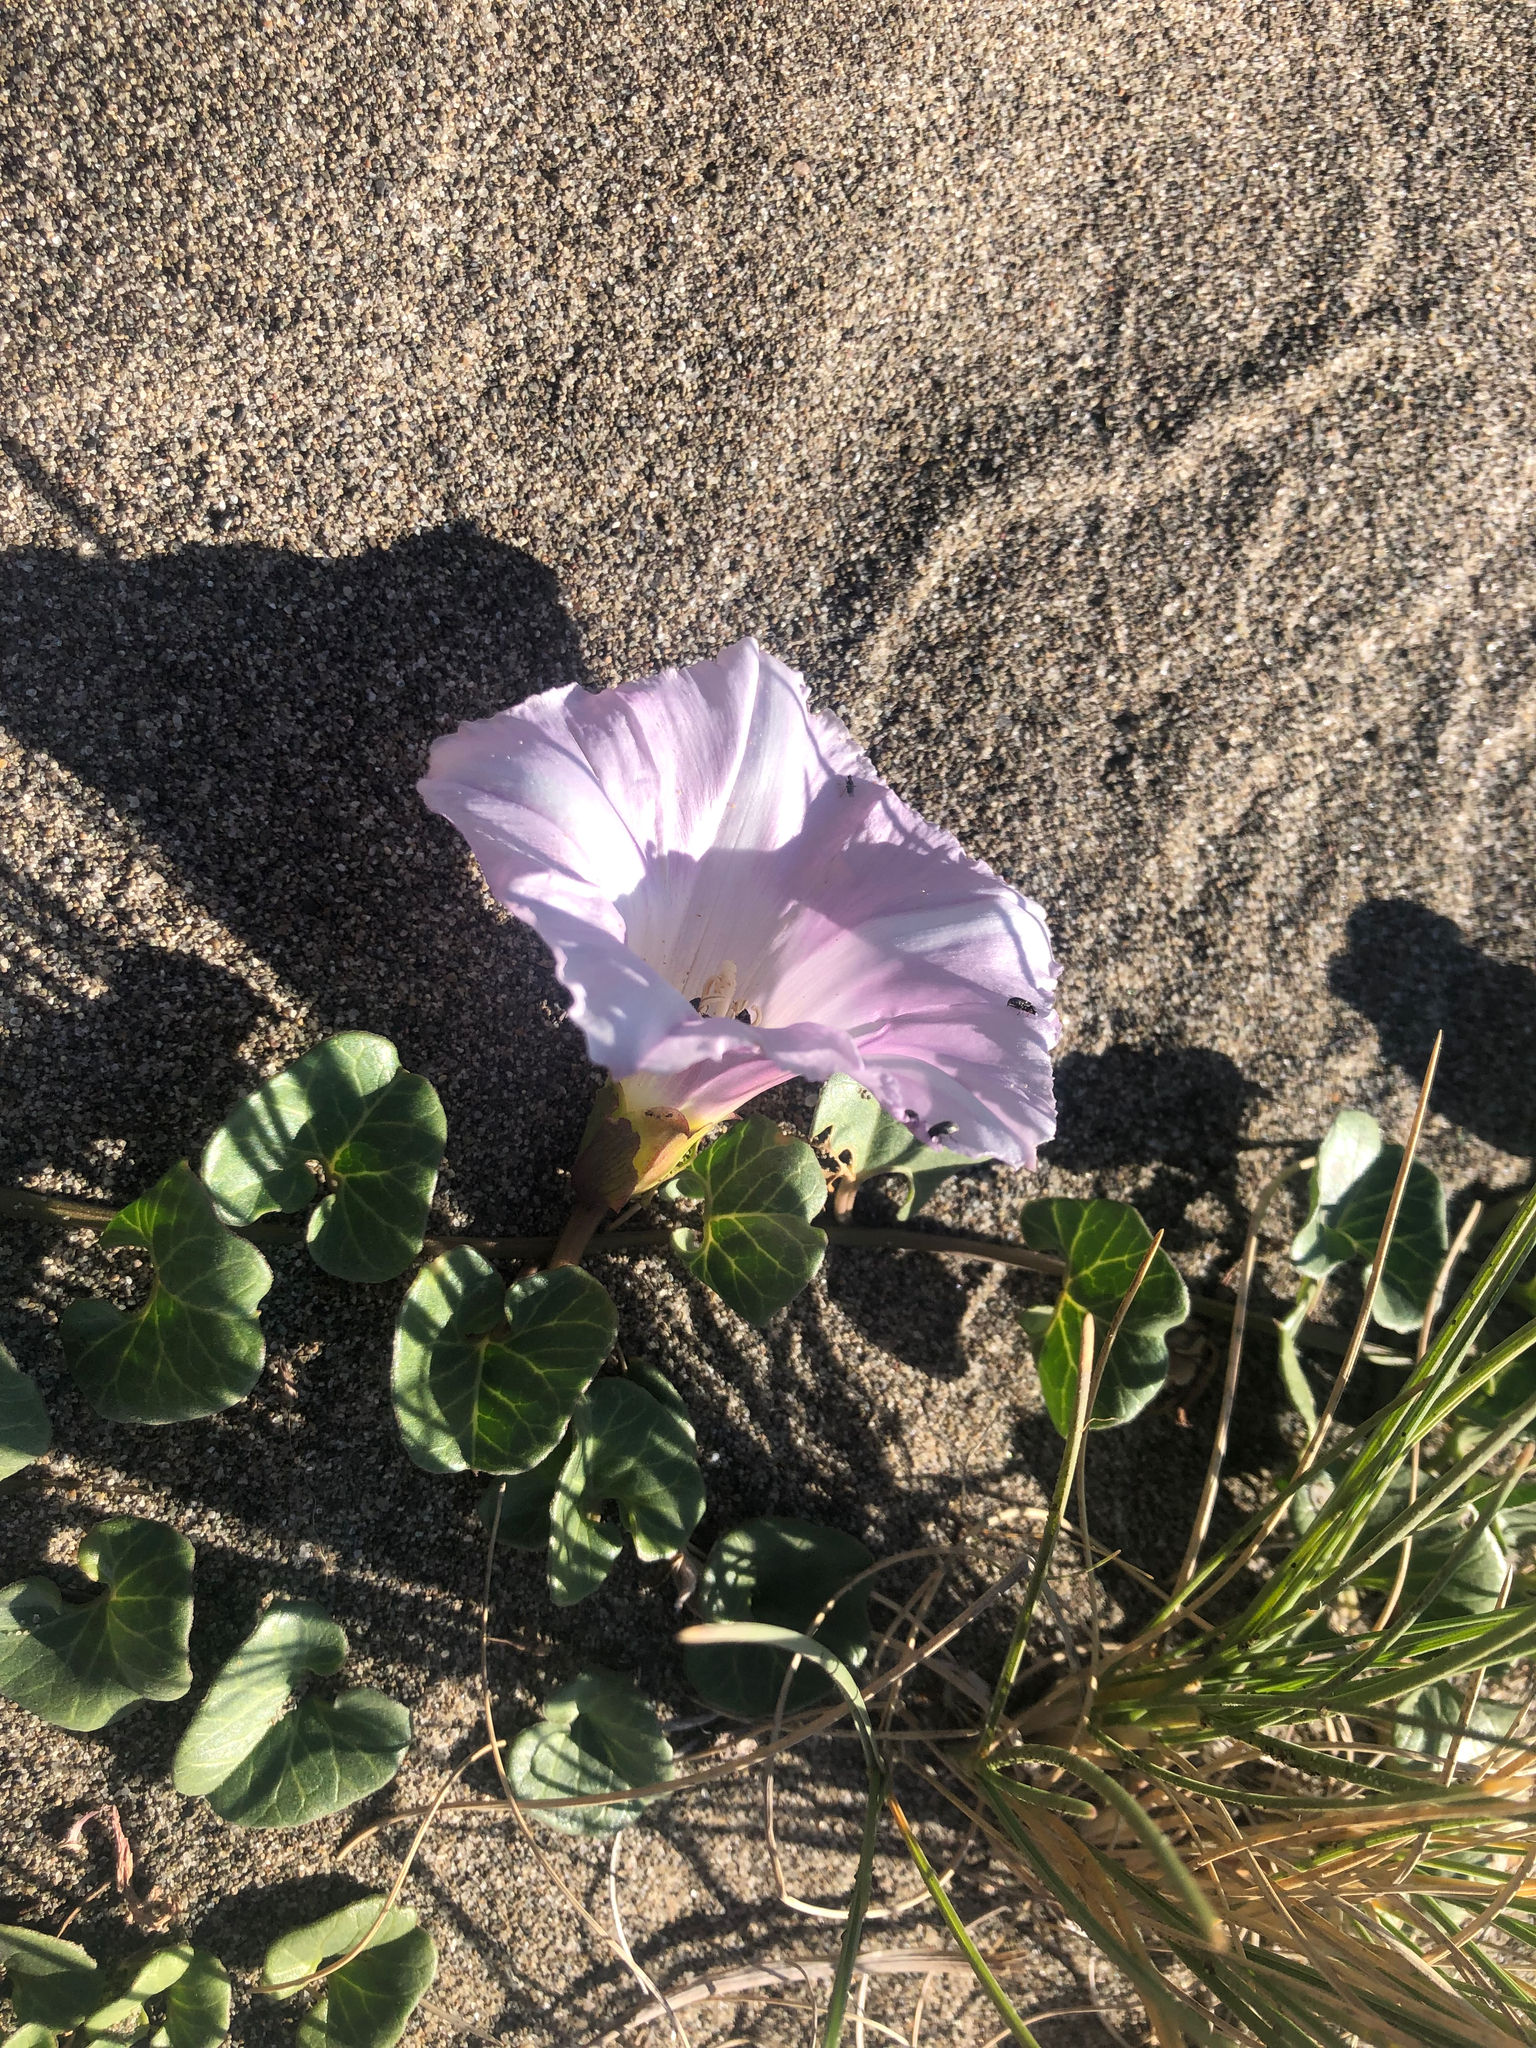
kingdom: Plantae
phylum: Tracheophyta
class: Magnoliopsida
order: Solanales
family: Convolvulaceae
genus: Calystegia
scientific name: Calystegia soldanella
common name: Sea bindweed
